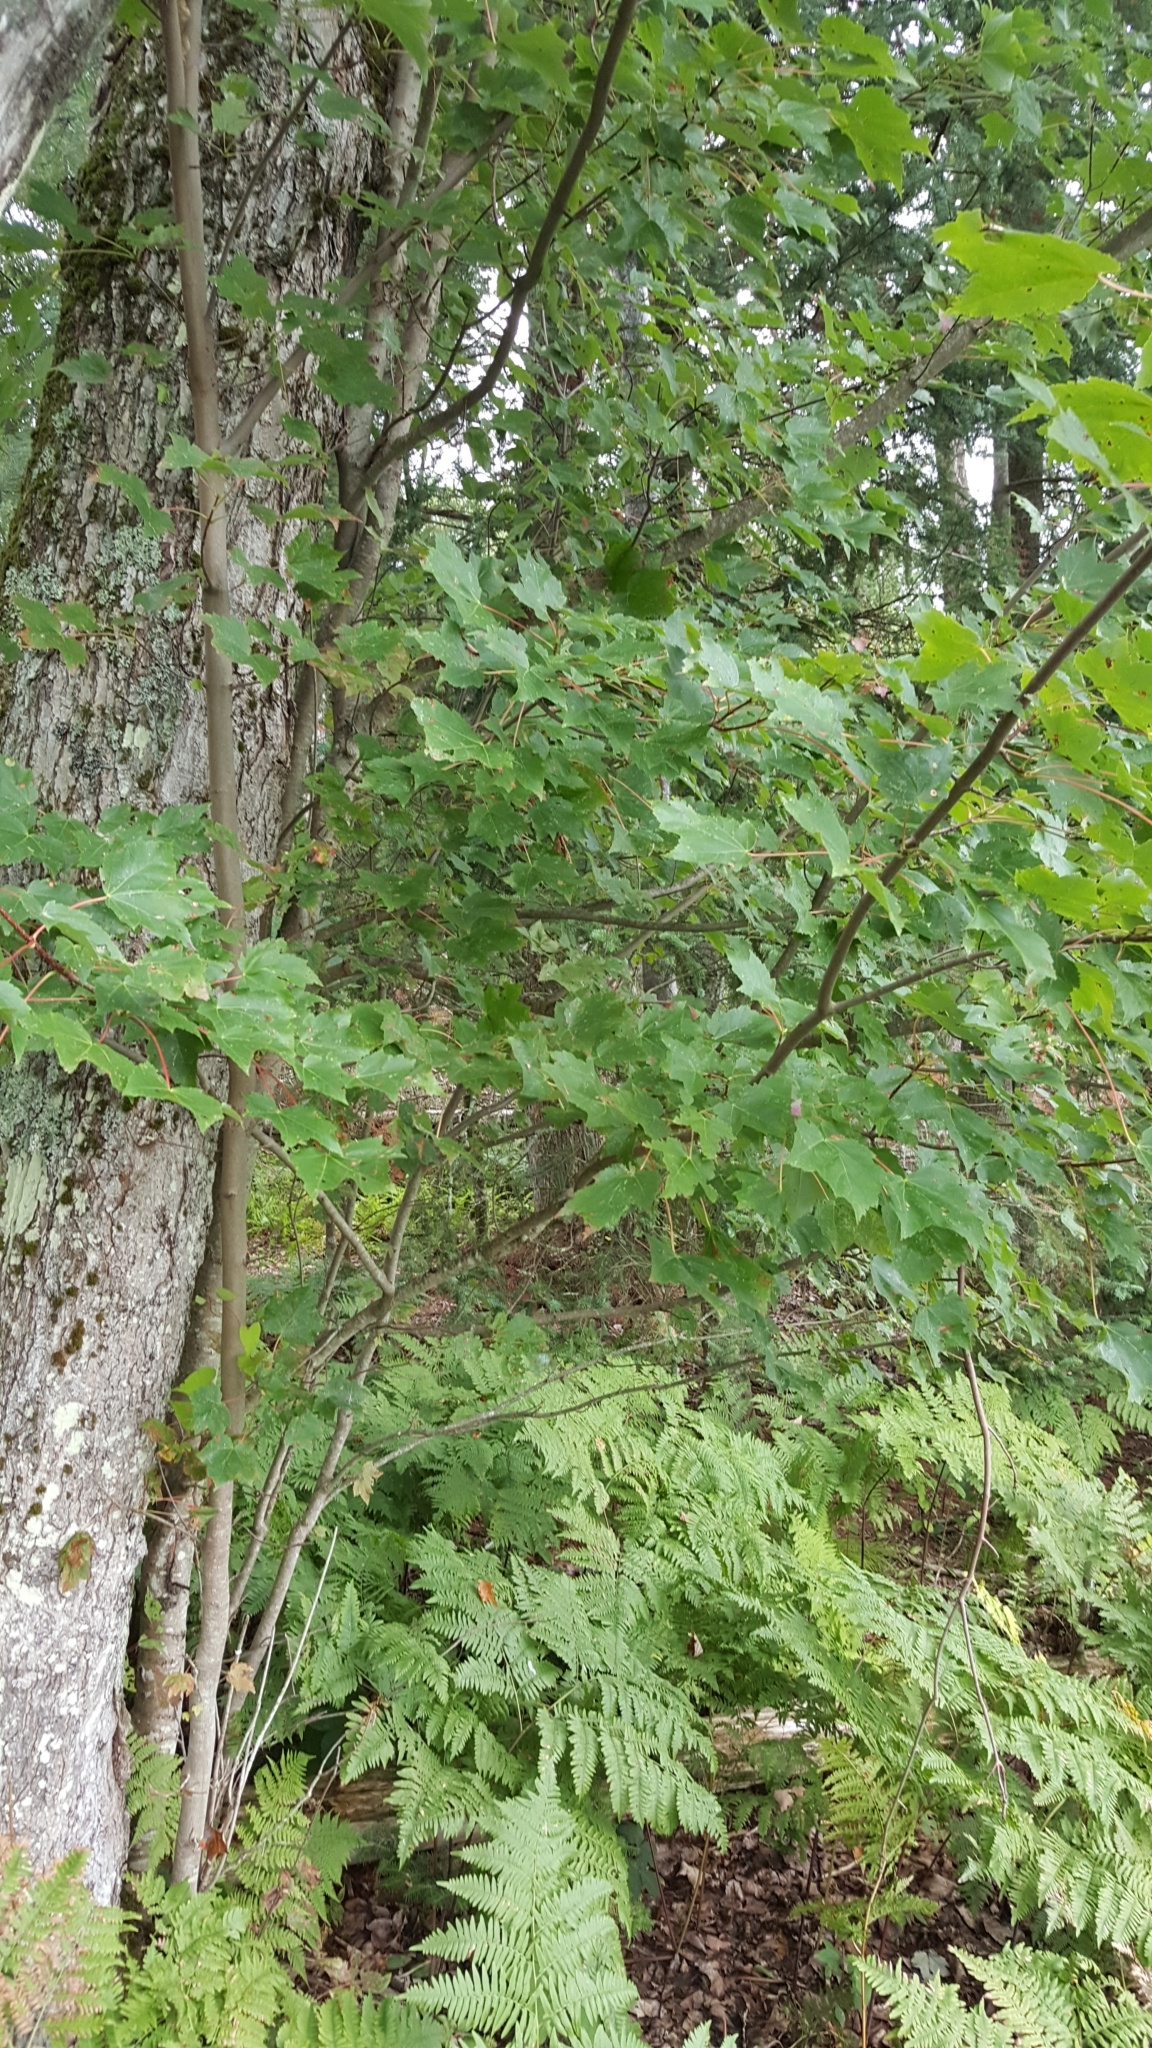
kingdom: Plantae
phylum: Tracheophyta
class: Magnoliopsida
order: Sapindales
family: Sapindaceae
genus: Acer
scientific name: Acer rubrum
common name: Red maple
